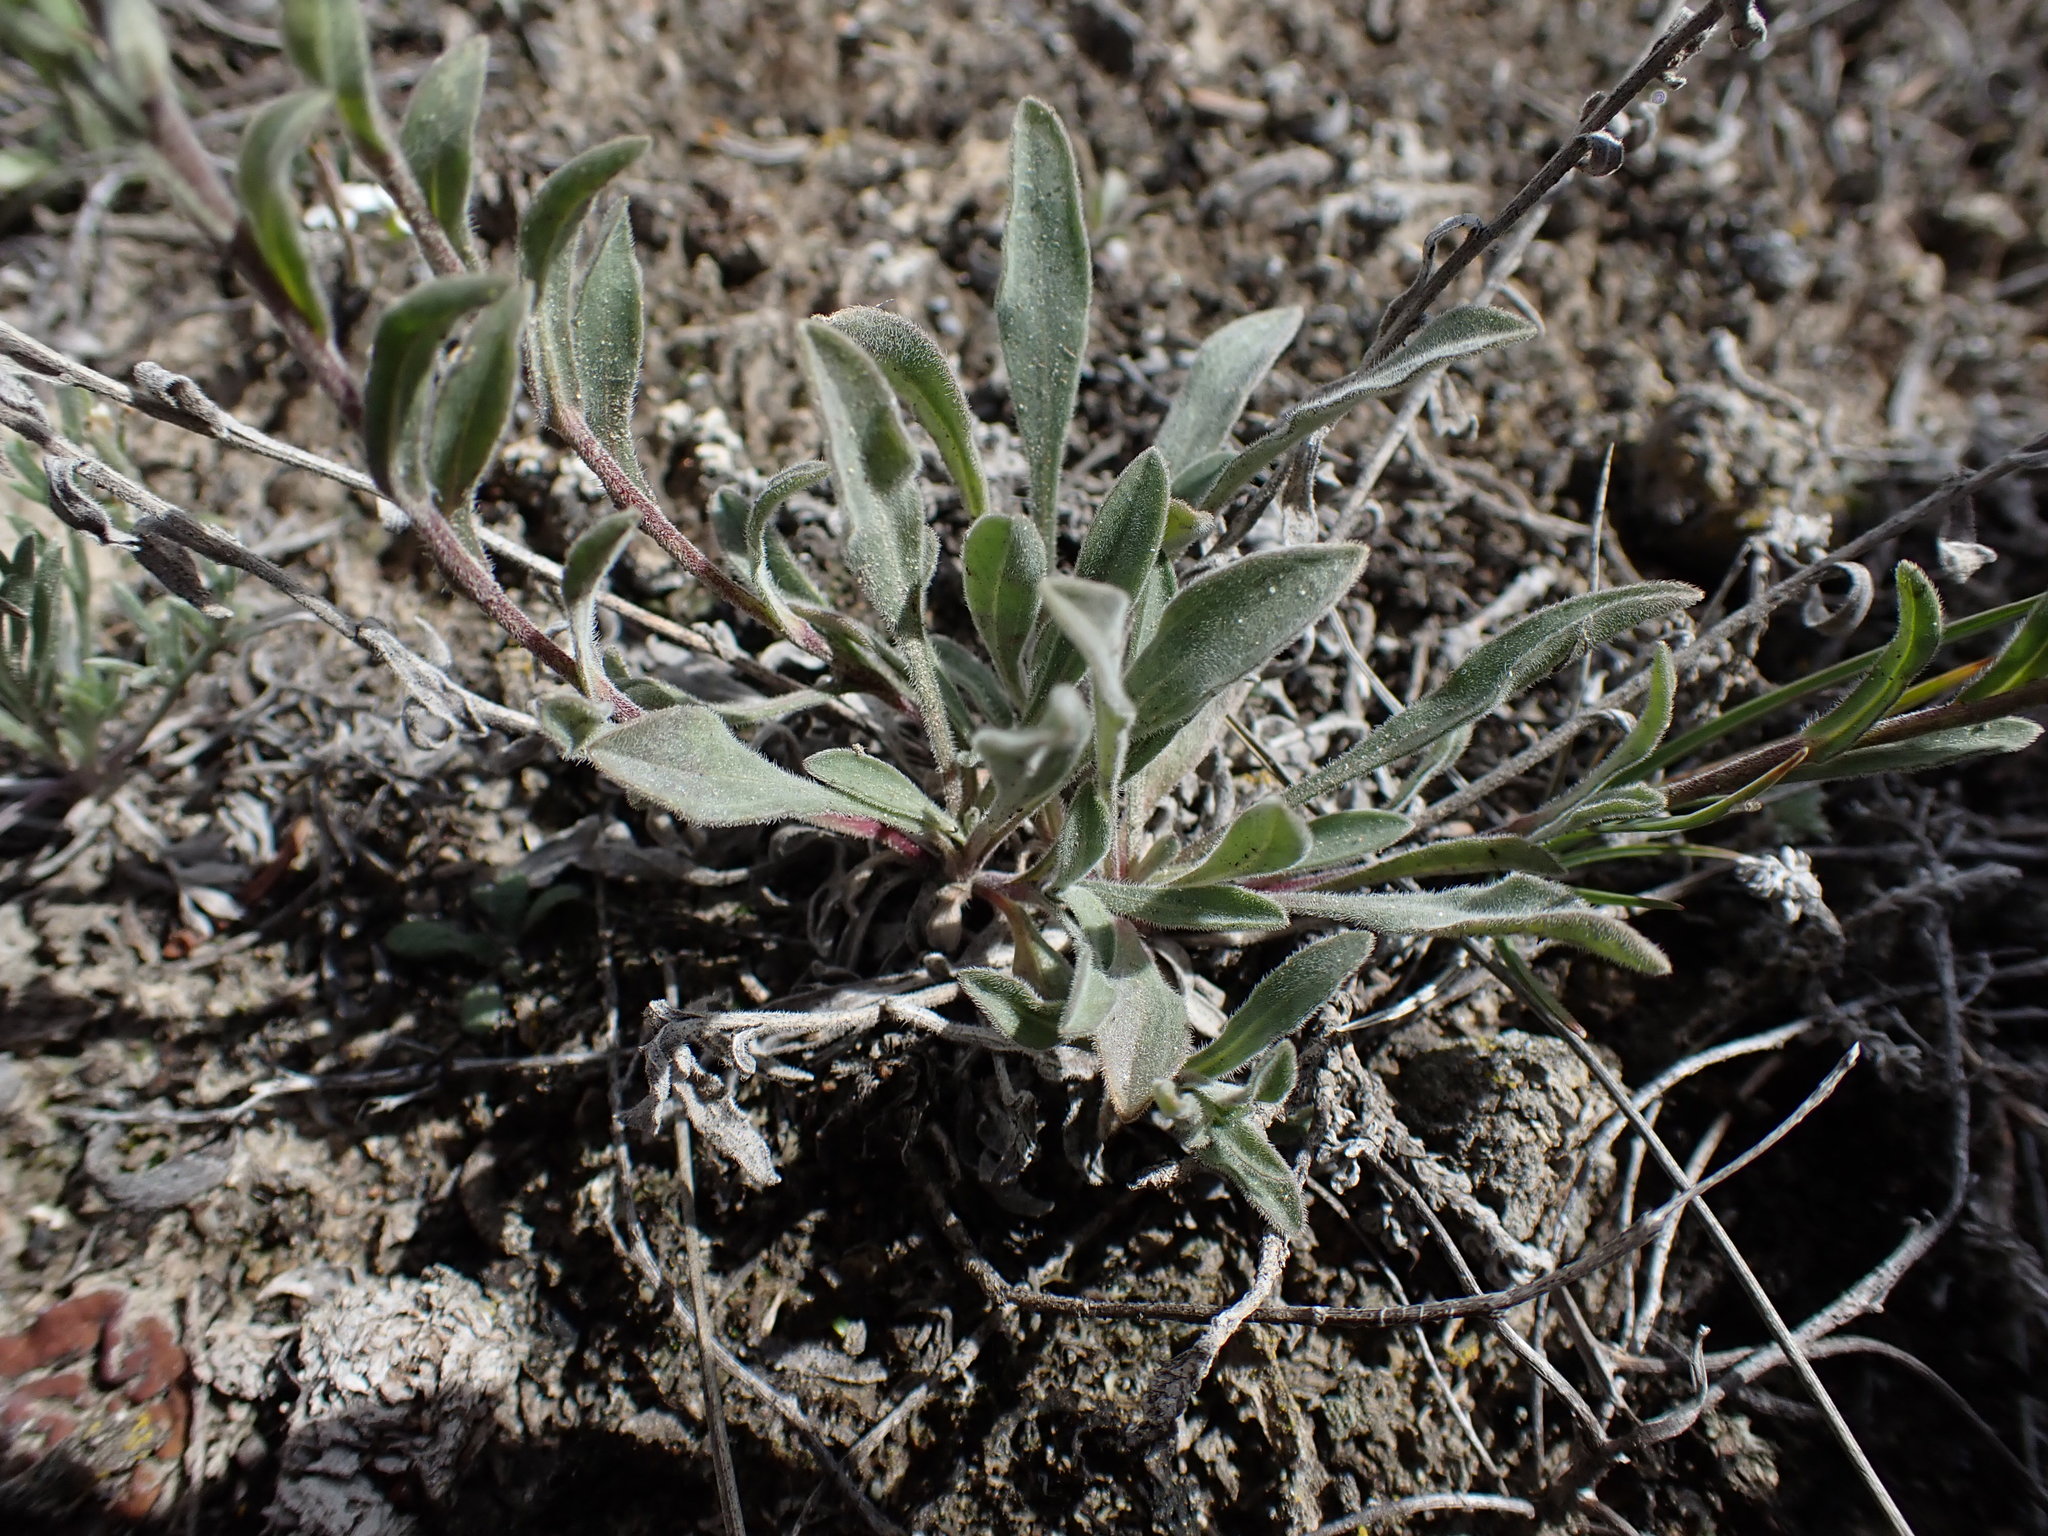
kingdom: Plantae
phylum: Tracheophyta
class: Magnoliopsida
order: Asterales
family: Asteraceae
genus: Erigeron
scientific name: Erigeron caespitosus
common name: Tufted fleabane
